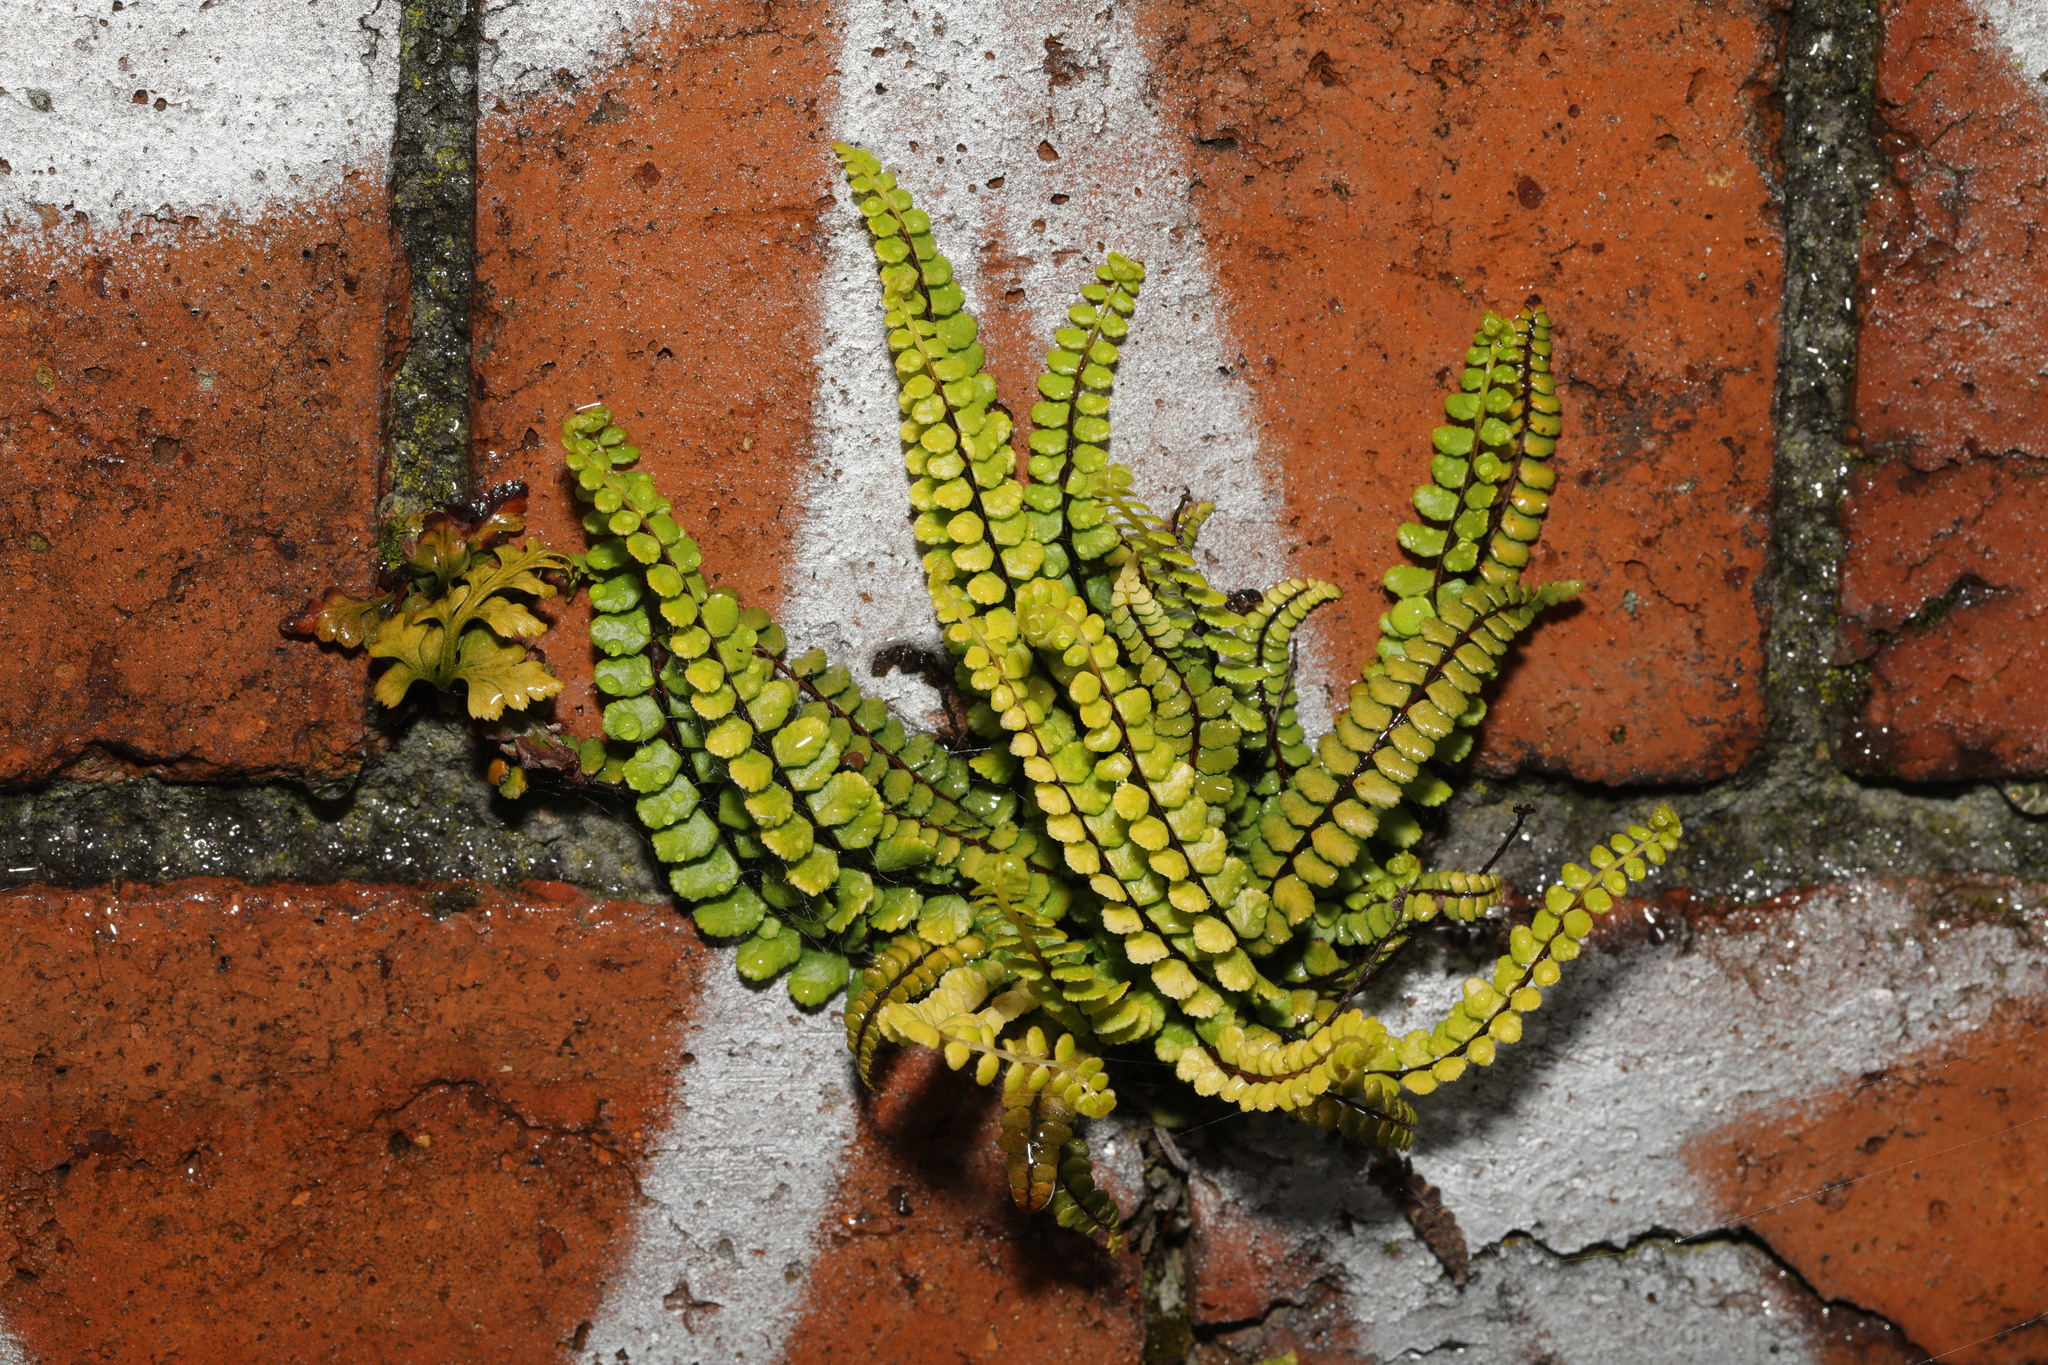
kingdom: Plantae
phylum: Tracheophyta
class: Polypodiopsida
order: Polypodiales
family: Aspleniaceae
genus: Asplenium
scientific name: Asplenium trichomanes
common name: Maidenhair spleenwort
